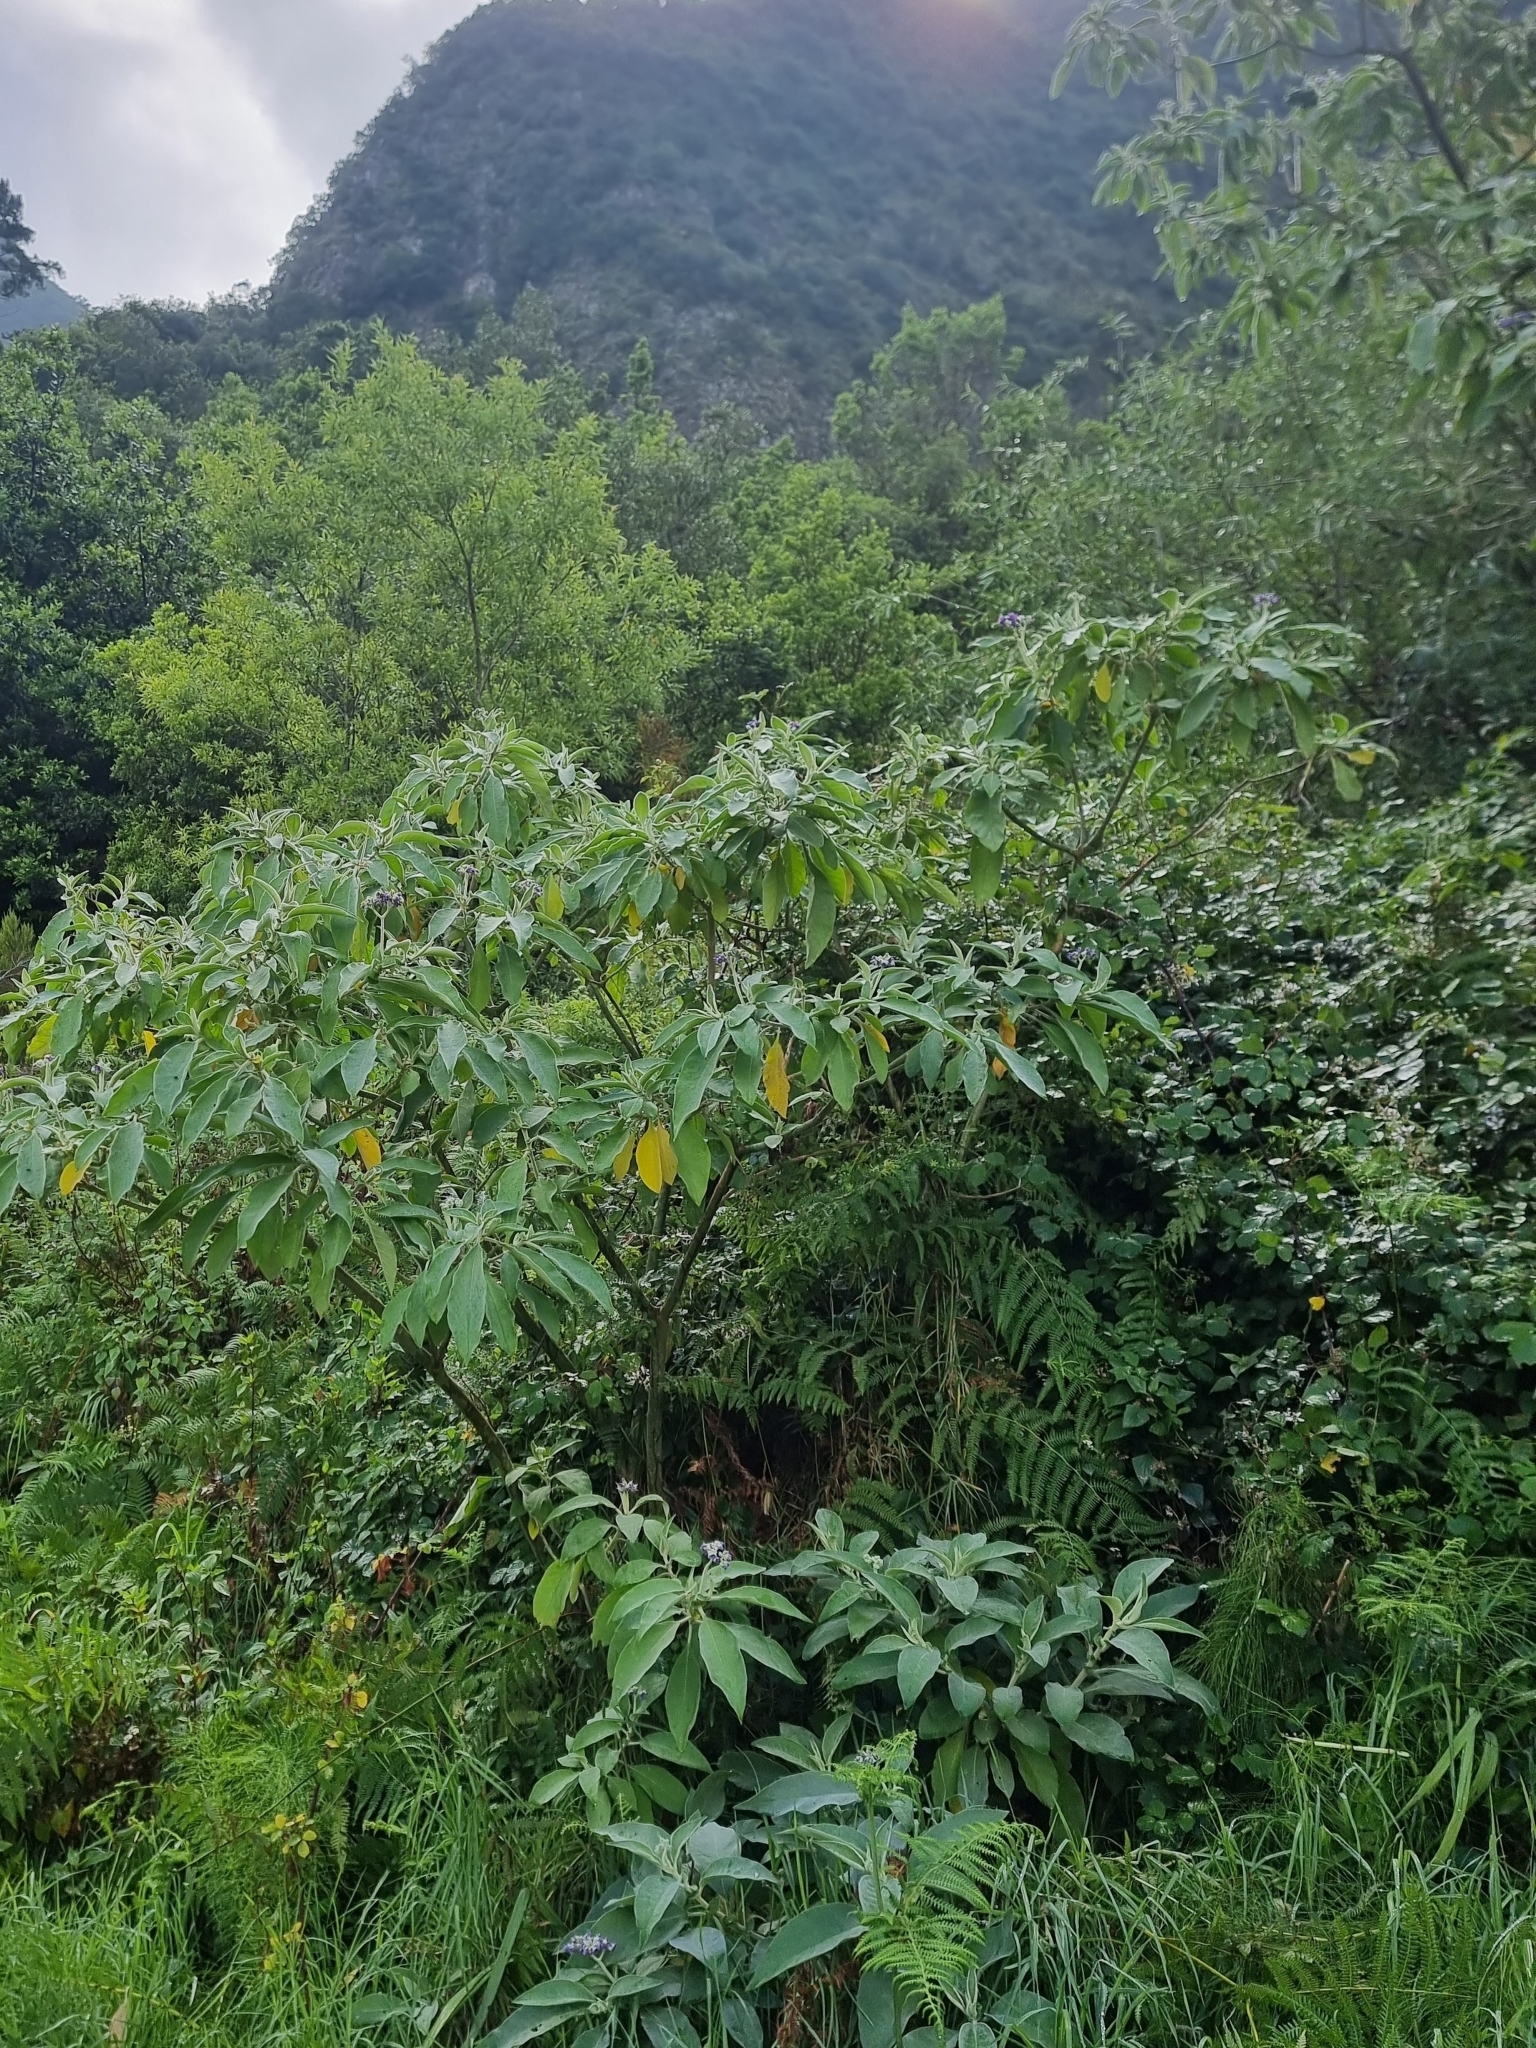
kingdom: Plantae
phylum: Tracheophyta
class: Magnoliopsida
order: Solanales
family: Solanaceae
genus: Solanum
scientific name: Solanum mauritianum
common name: Earleaf nightshade
